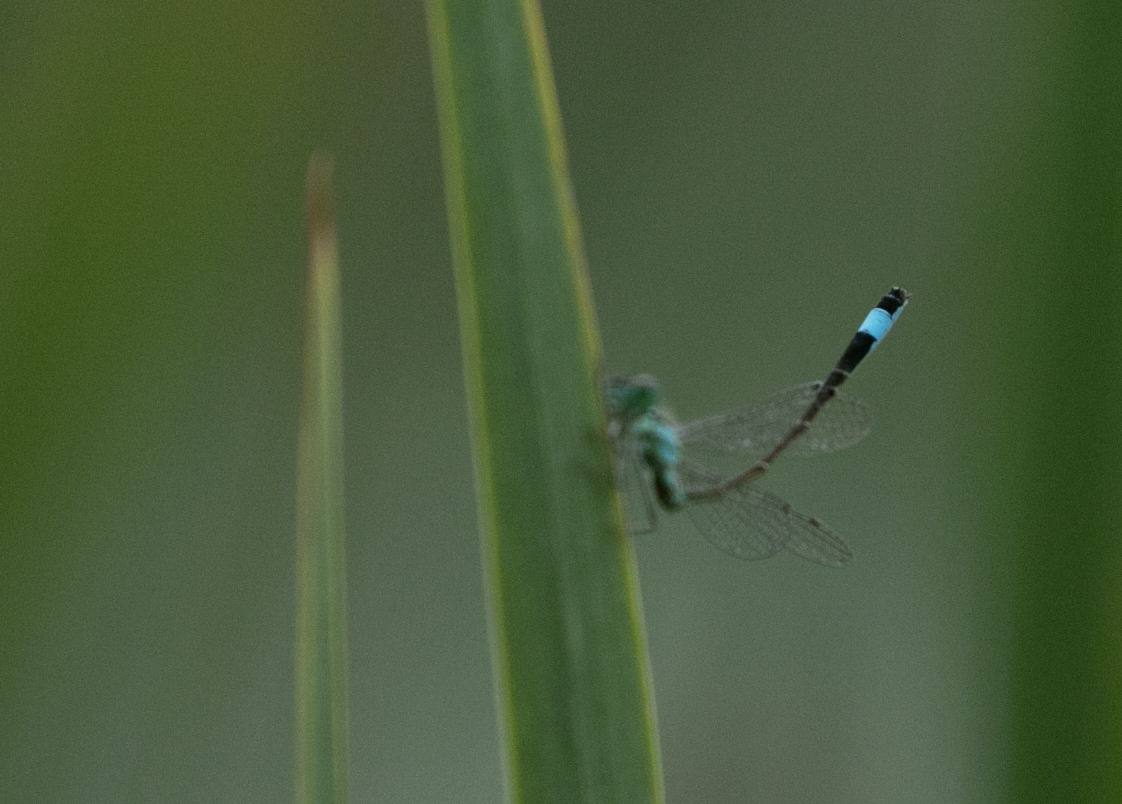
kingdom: Animalia
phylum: Arthropoda
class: Insecta
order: Odonata
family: Coenagrionidae
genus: Ischnura
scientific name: Ischnura elegans
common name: Blue-tailed damselfly
